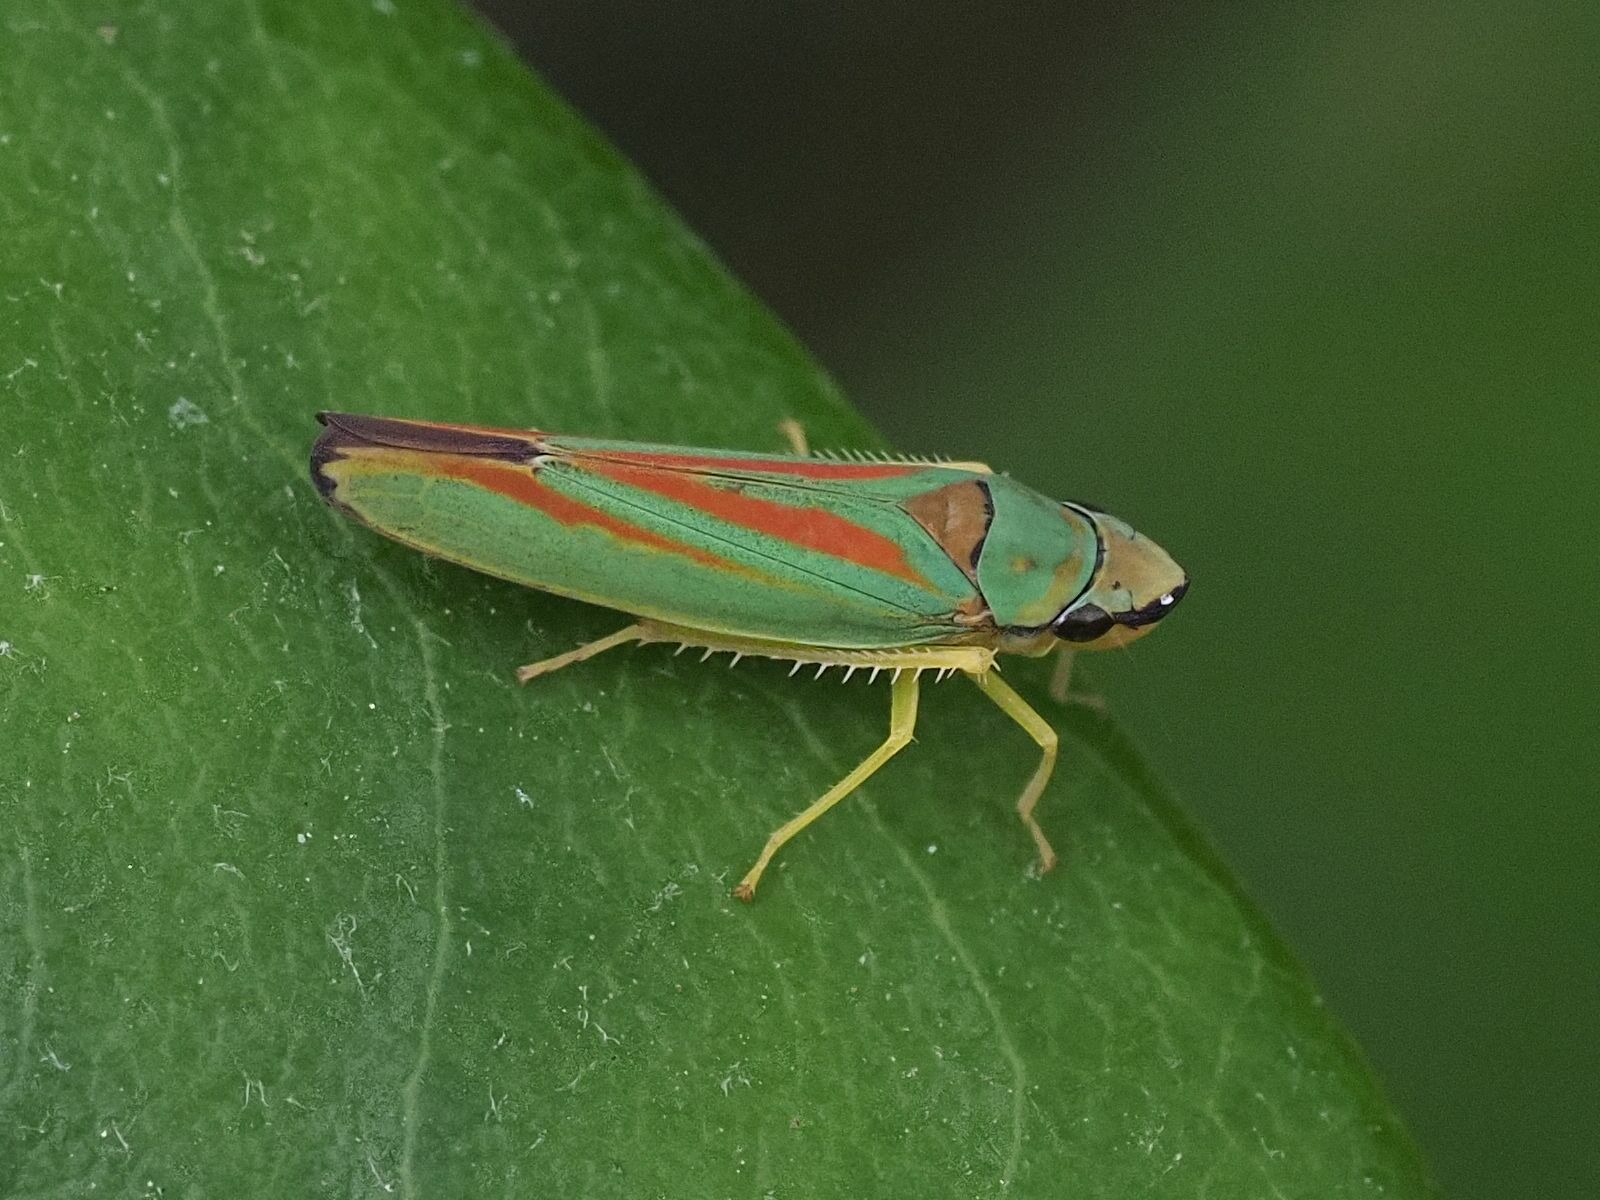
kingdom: Animalia
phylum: Arthropoda
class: Insecta
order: Hemiptera
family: Cicadellidae
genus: Graphocephala
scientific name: Graphocephala fennahi
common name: Rhododendron leafhopper
